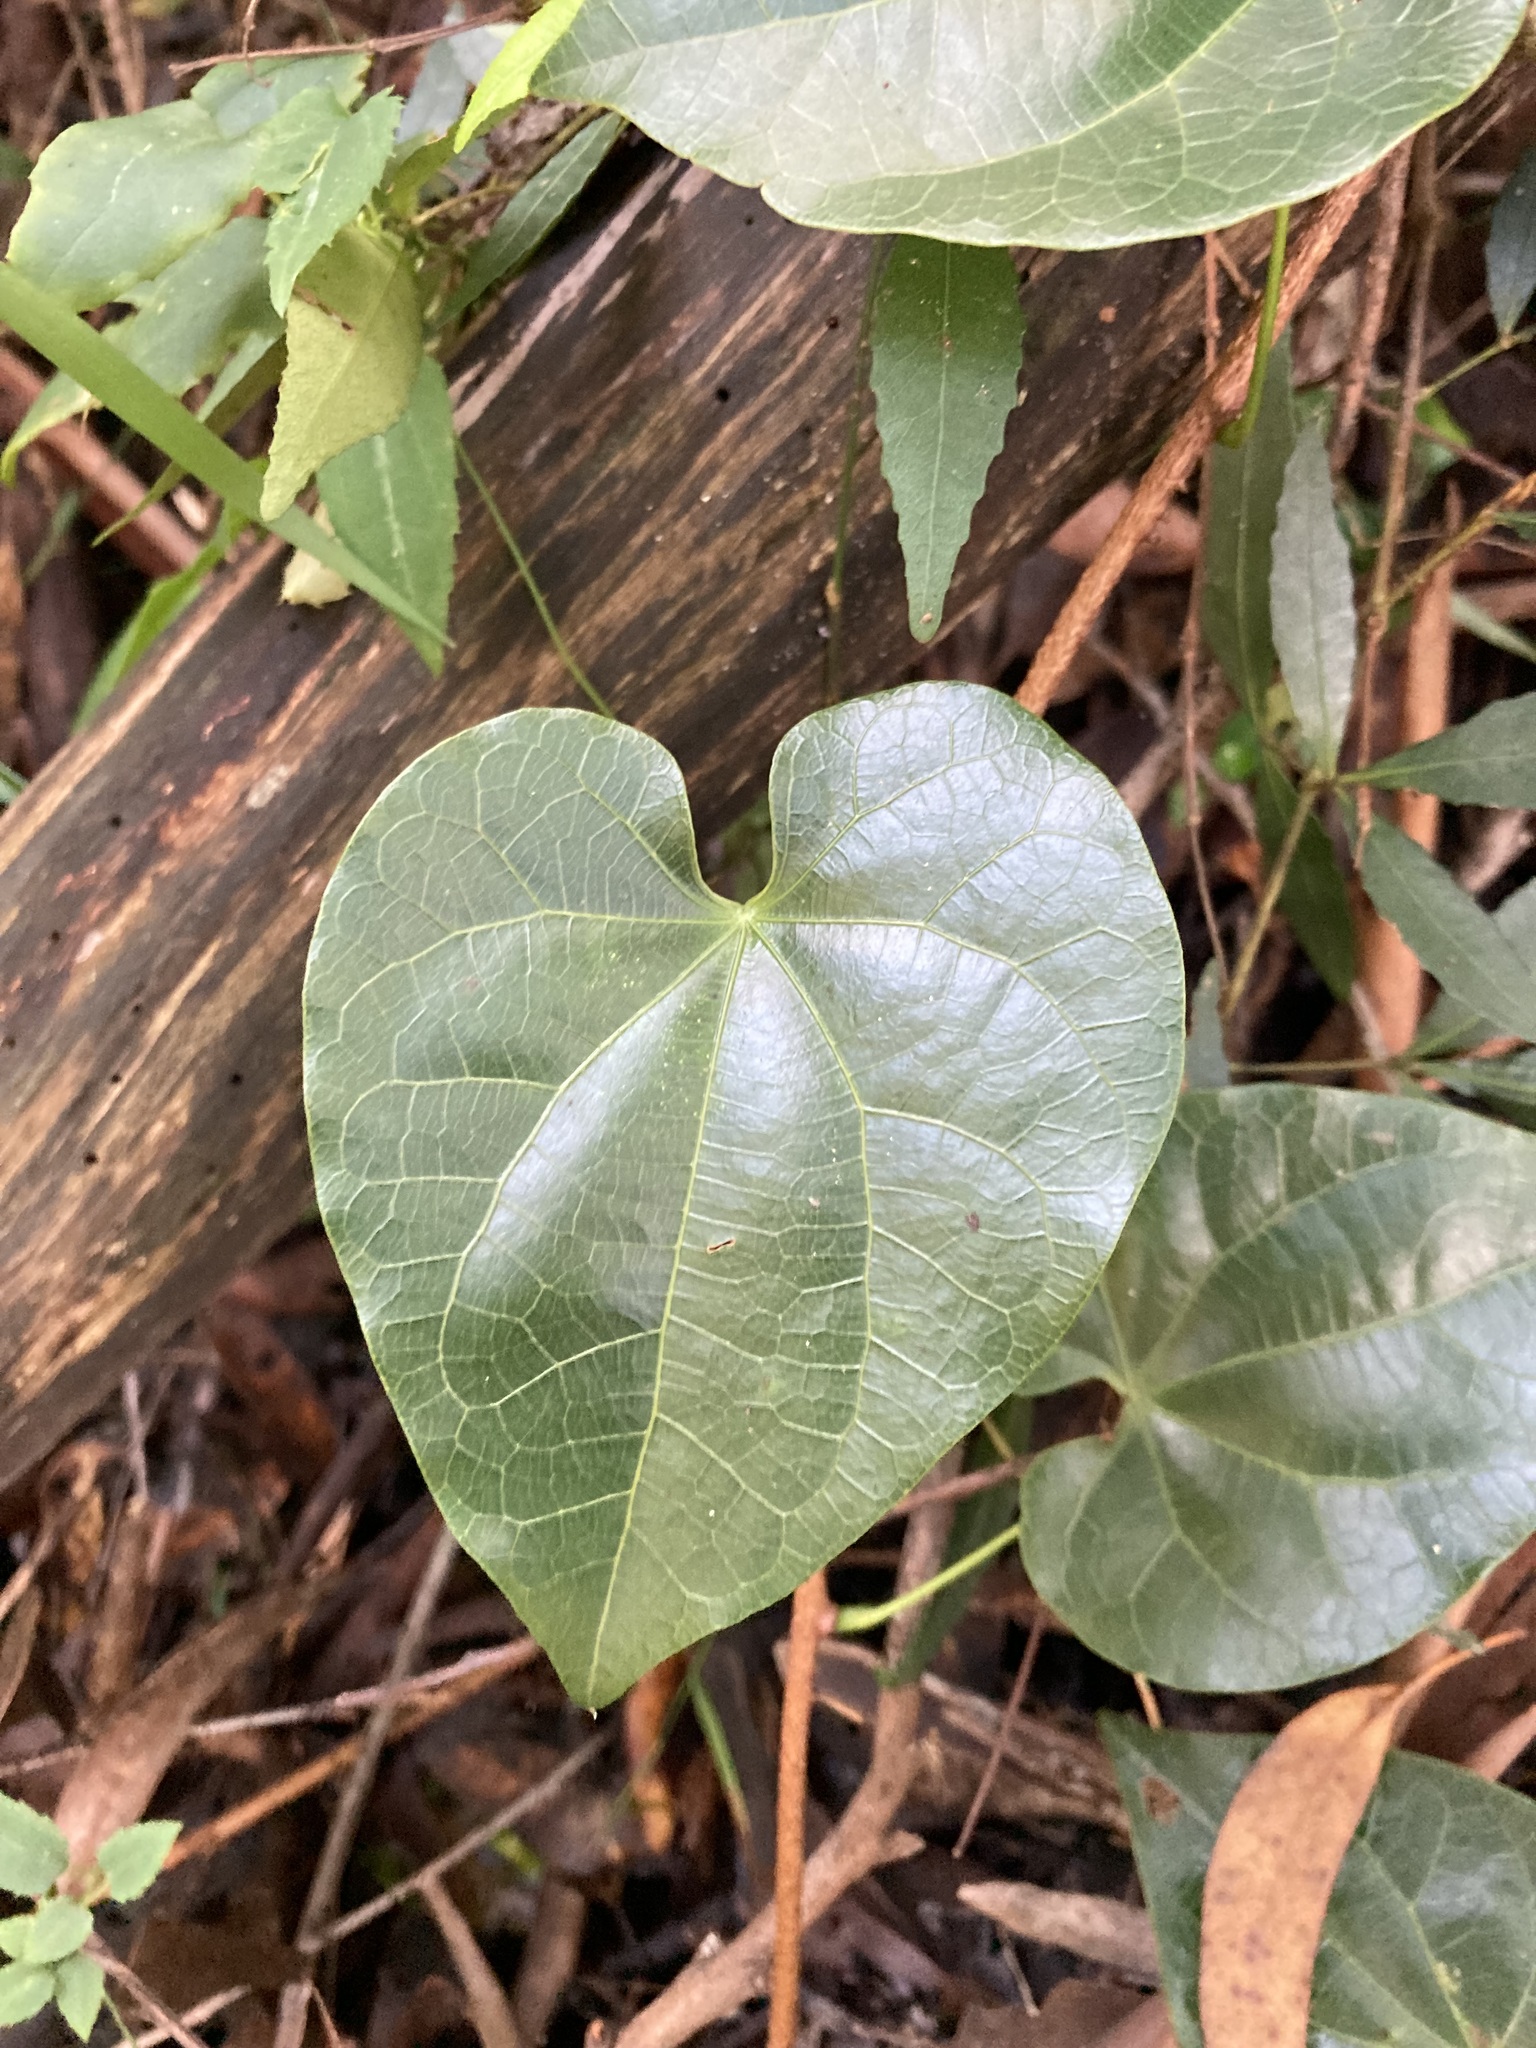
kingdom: Plantae
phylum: Tracheophyta
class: Magnoliopsida
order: Ranunculales
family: Menispermaceae
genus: Sarcopetalum
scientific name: Sarcopetalum harveyanum
